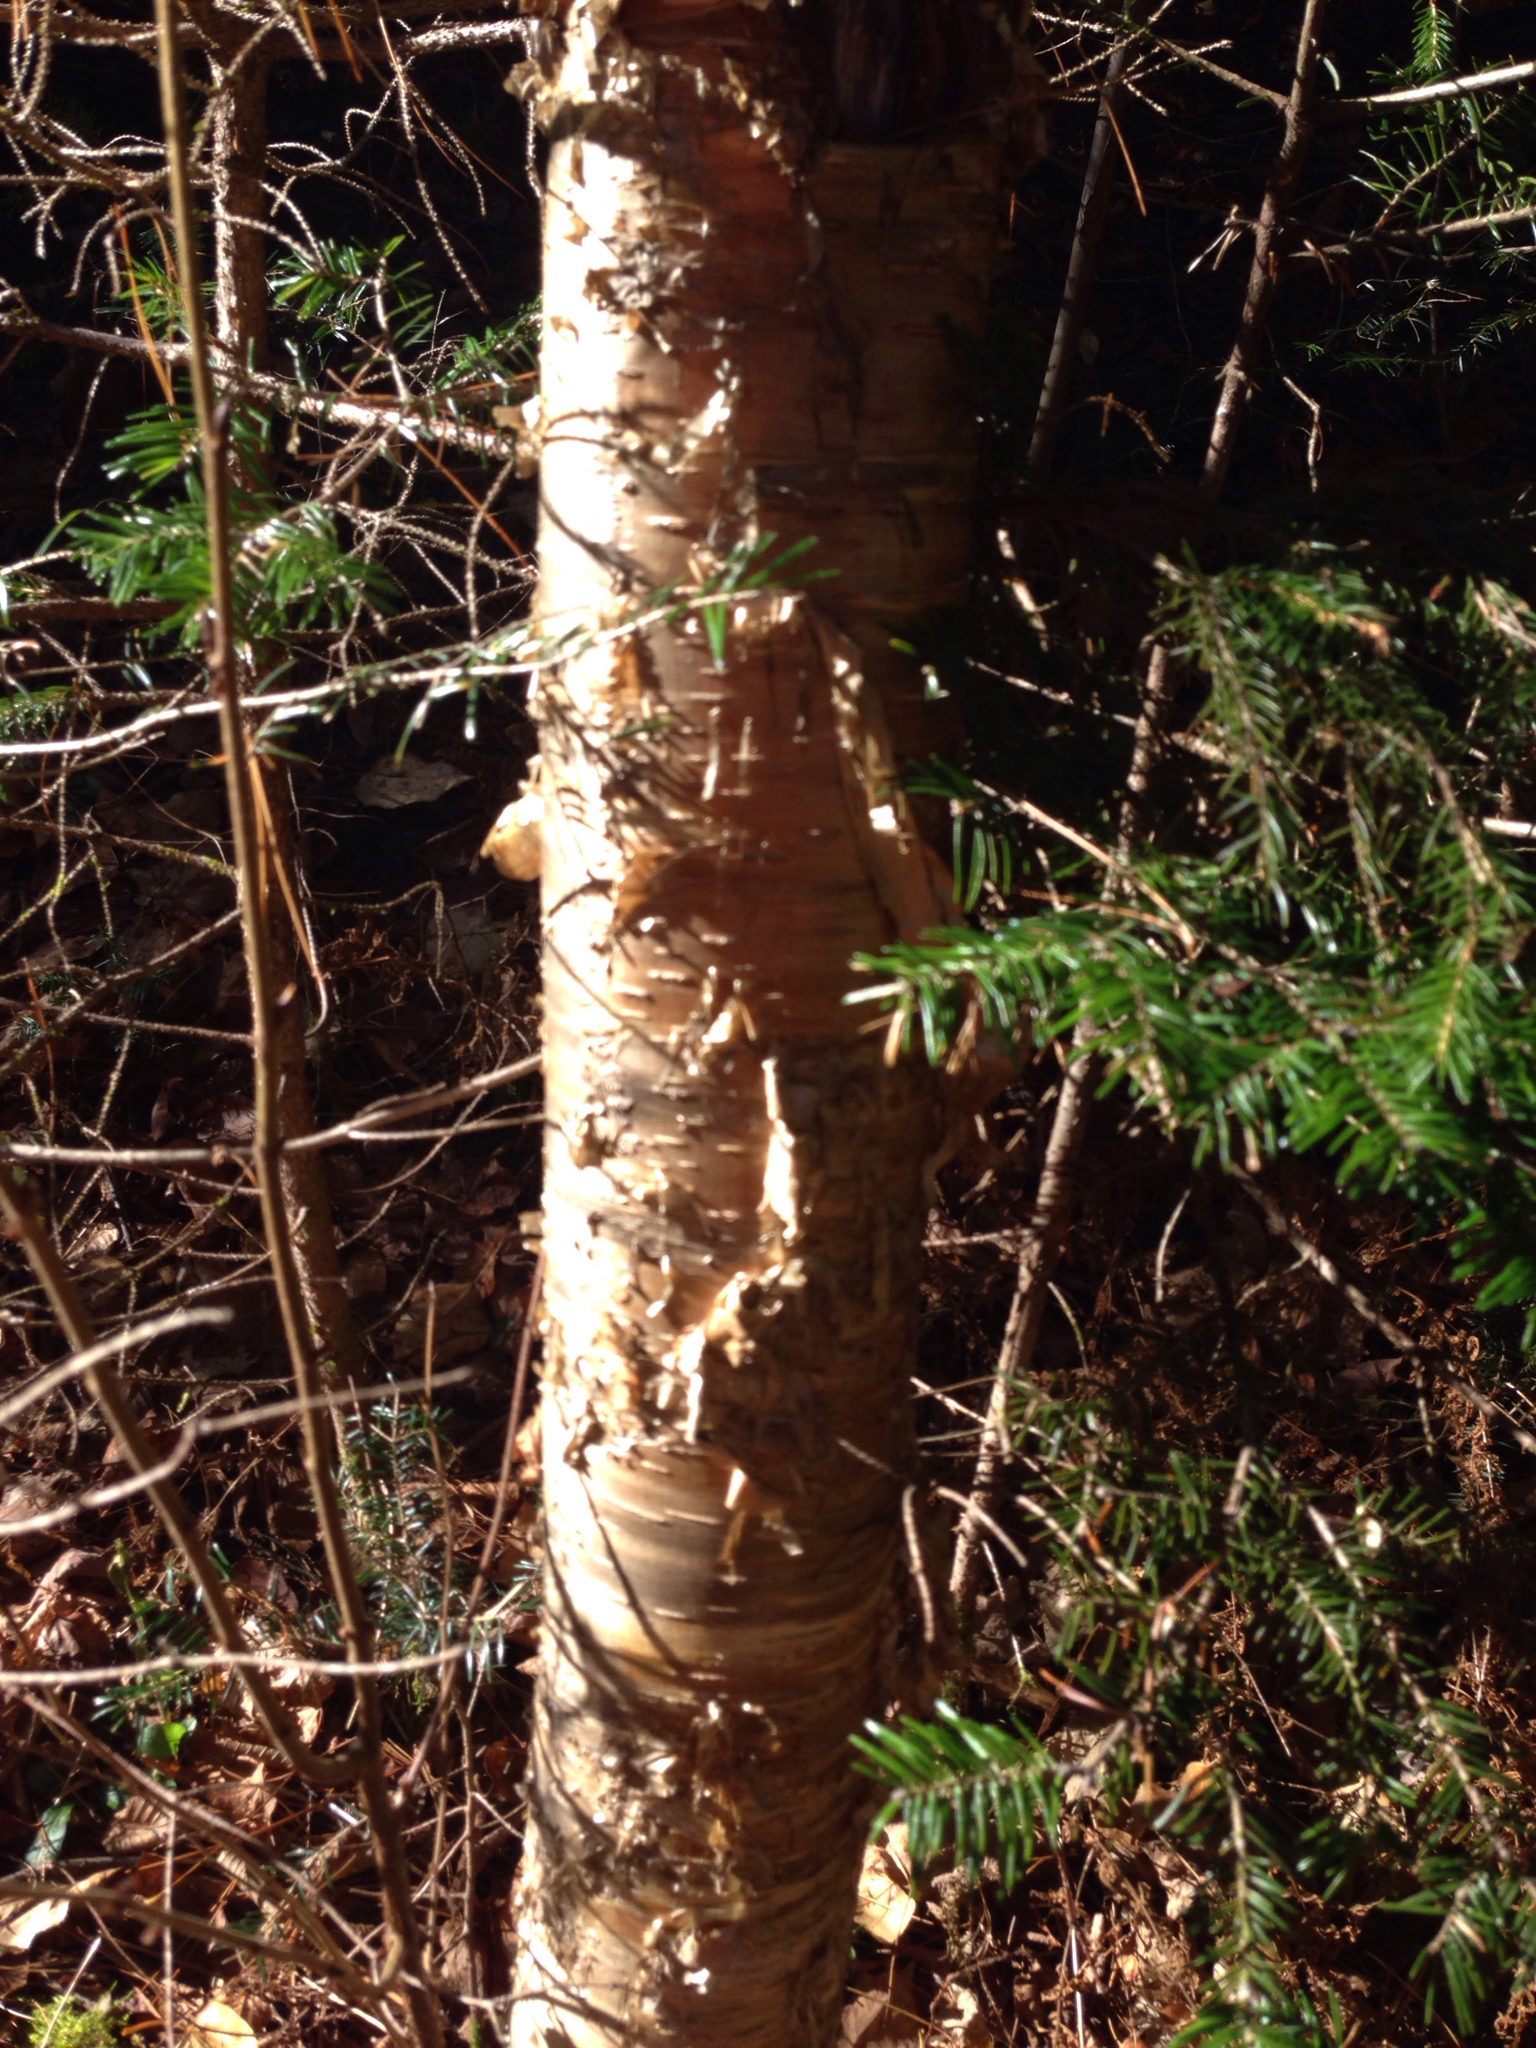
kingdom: Plantae
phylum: Tracheophyta
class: Magnoliopsida
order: Fagales
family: Betulaceae
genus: Betula
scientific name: Betula alleghaniensis
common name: Yellow birch
